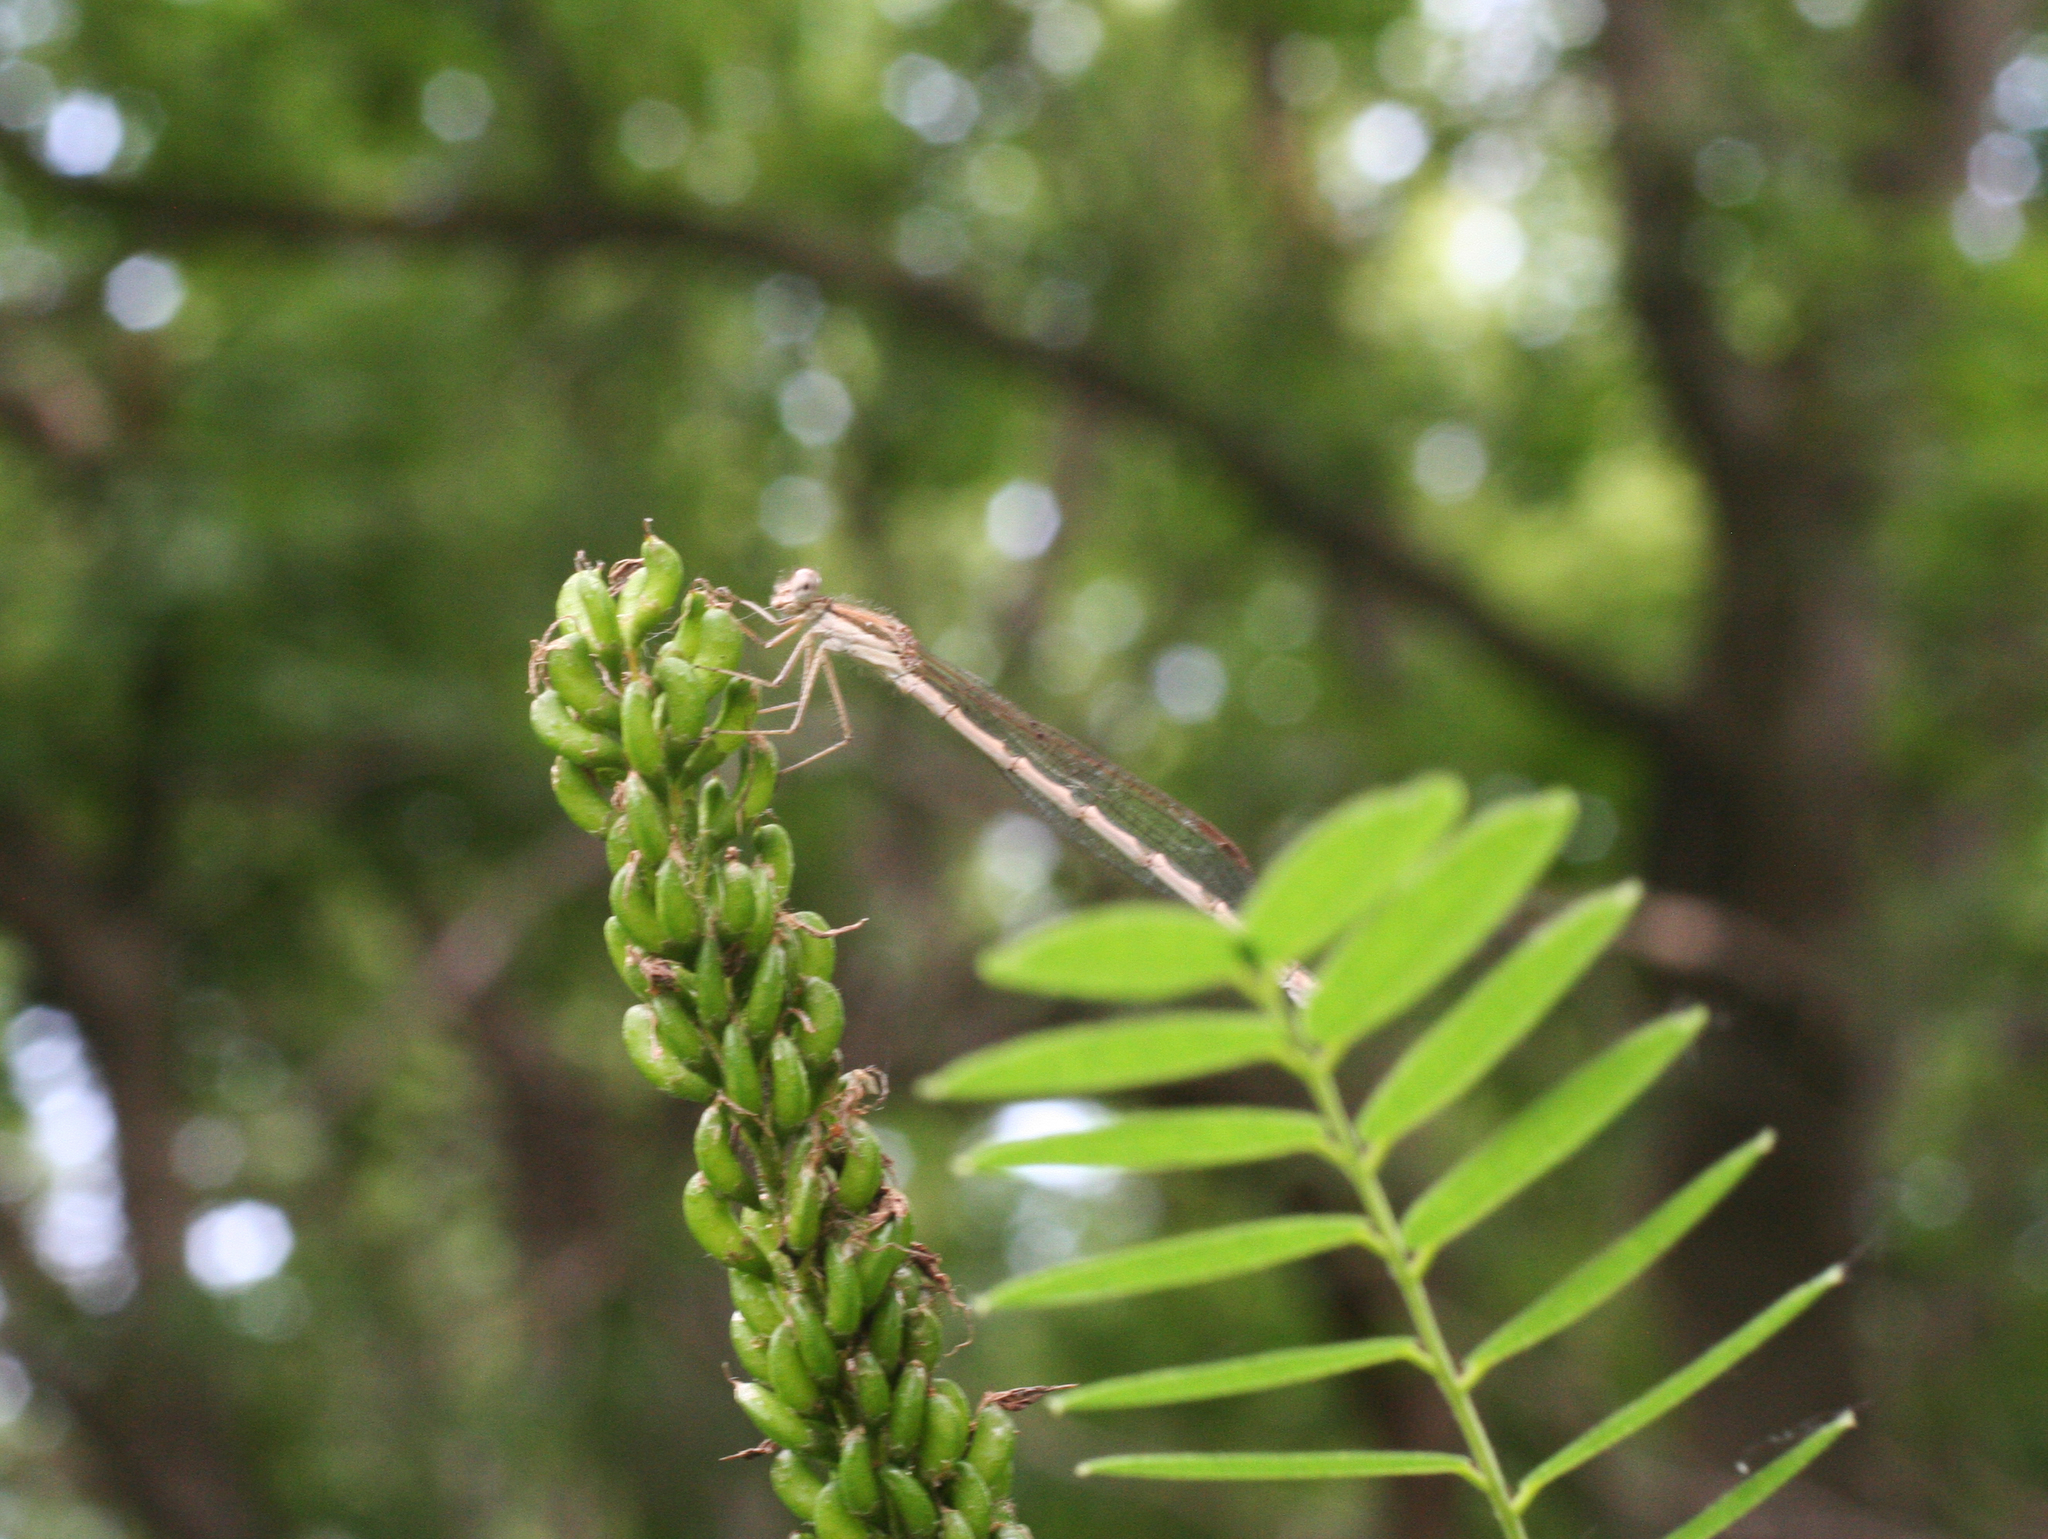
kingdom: Animalia
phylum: Arthropoda
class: Insecta
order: Odonata
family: Lestidae
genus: Sympecma
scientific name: Sympecma fusca
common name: Common winter damsel
